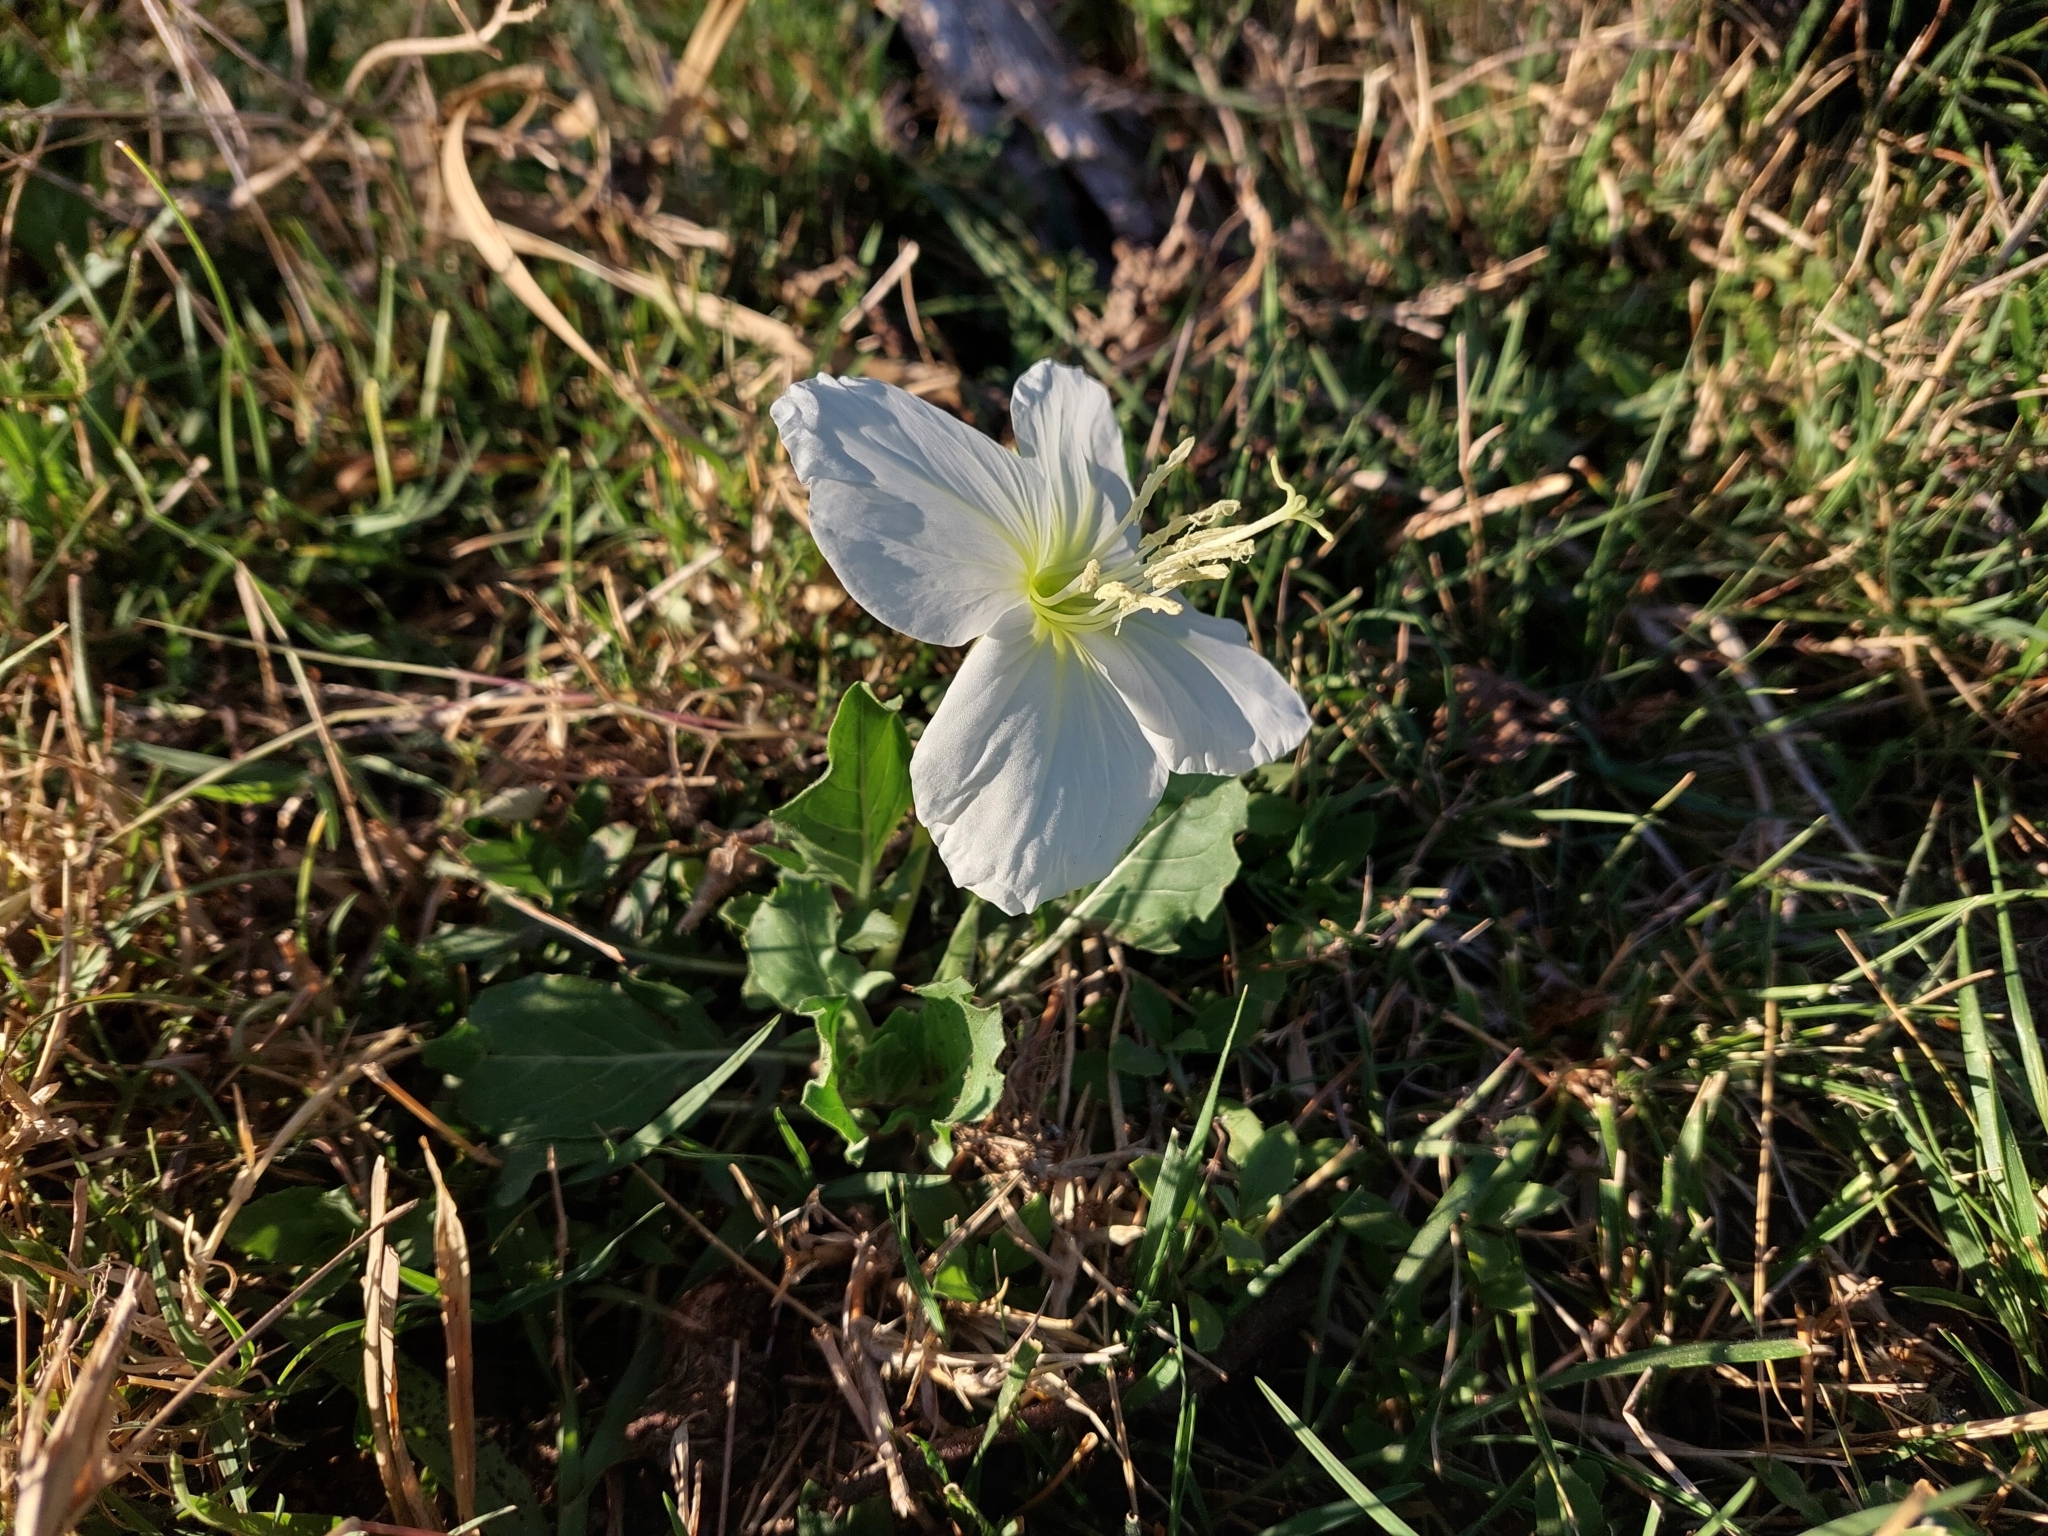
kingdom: Plantae
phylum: Tracheophyta
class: Magnoliopsida
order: Myrtales
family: Onagraceae
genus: Oenothera
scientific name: Oenothera centaurifolia
